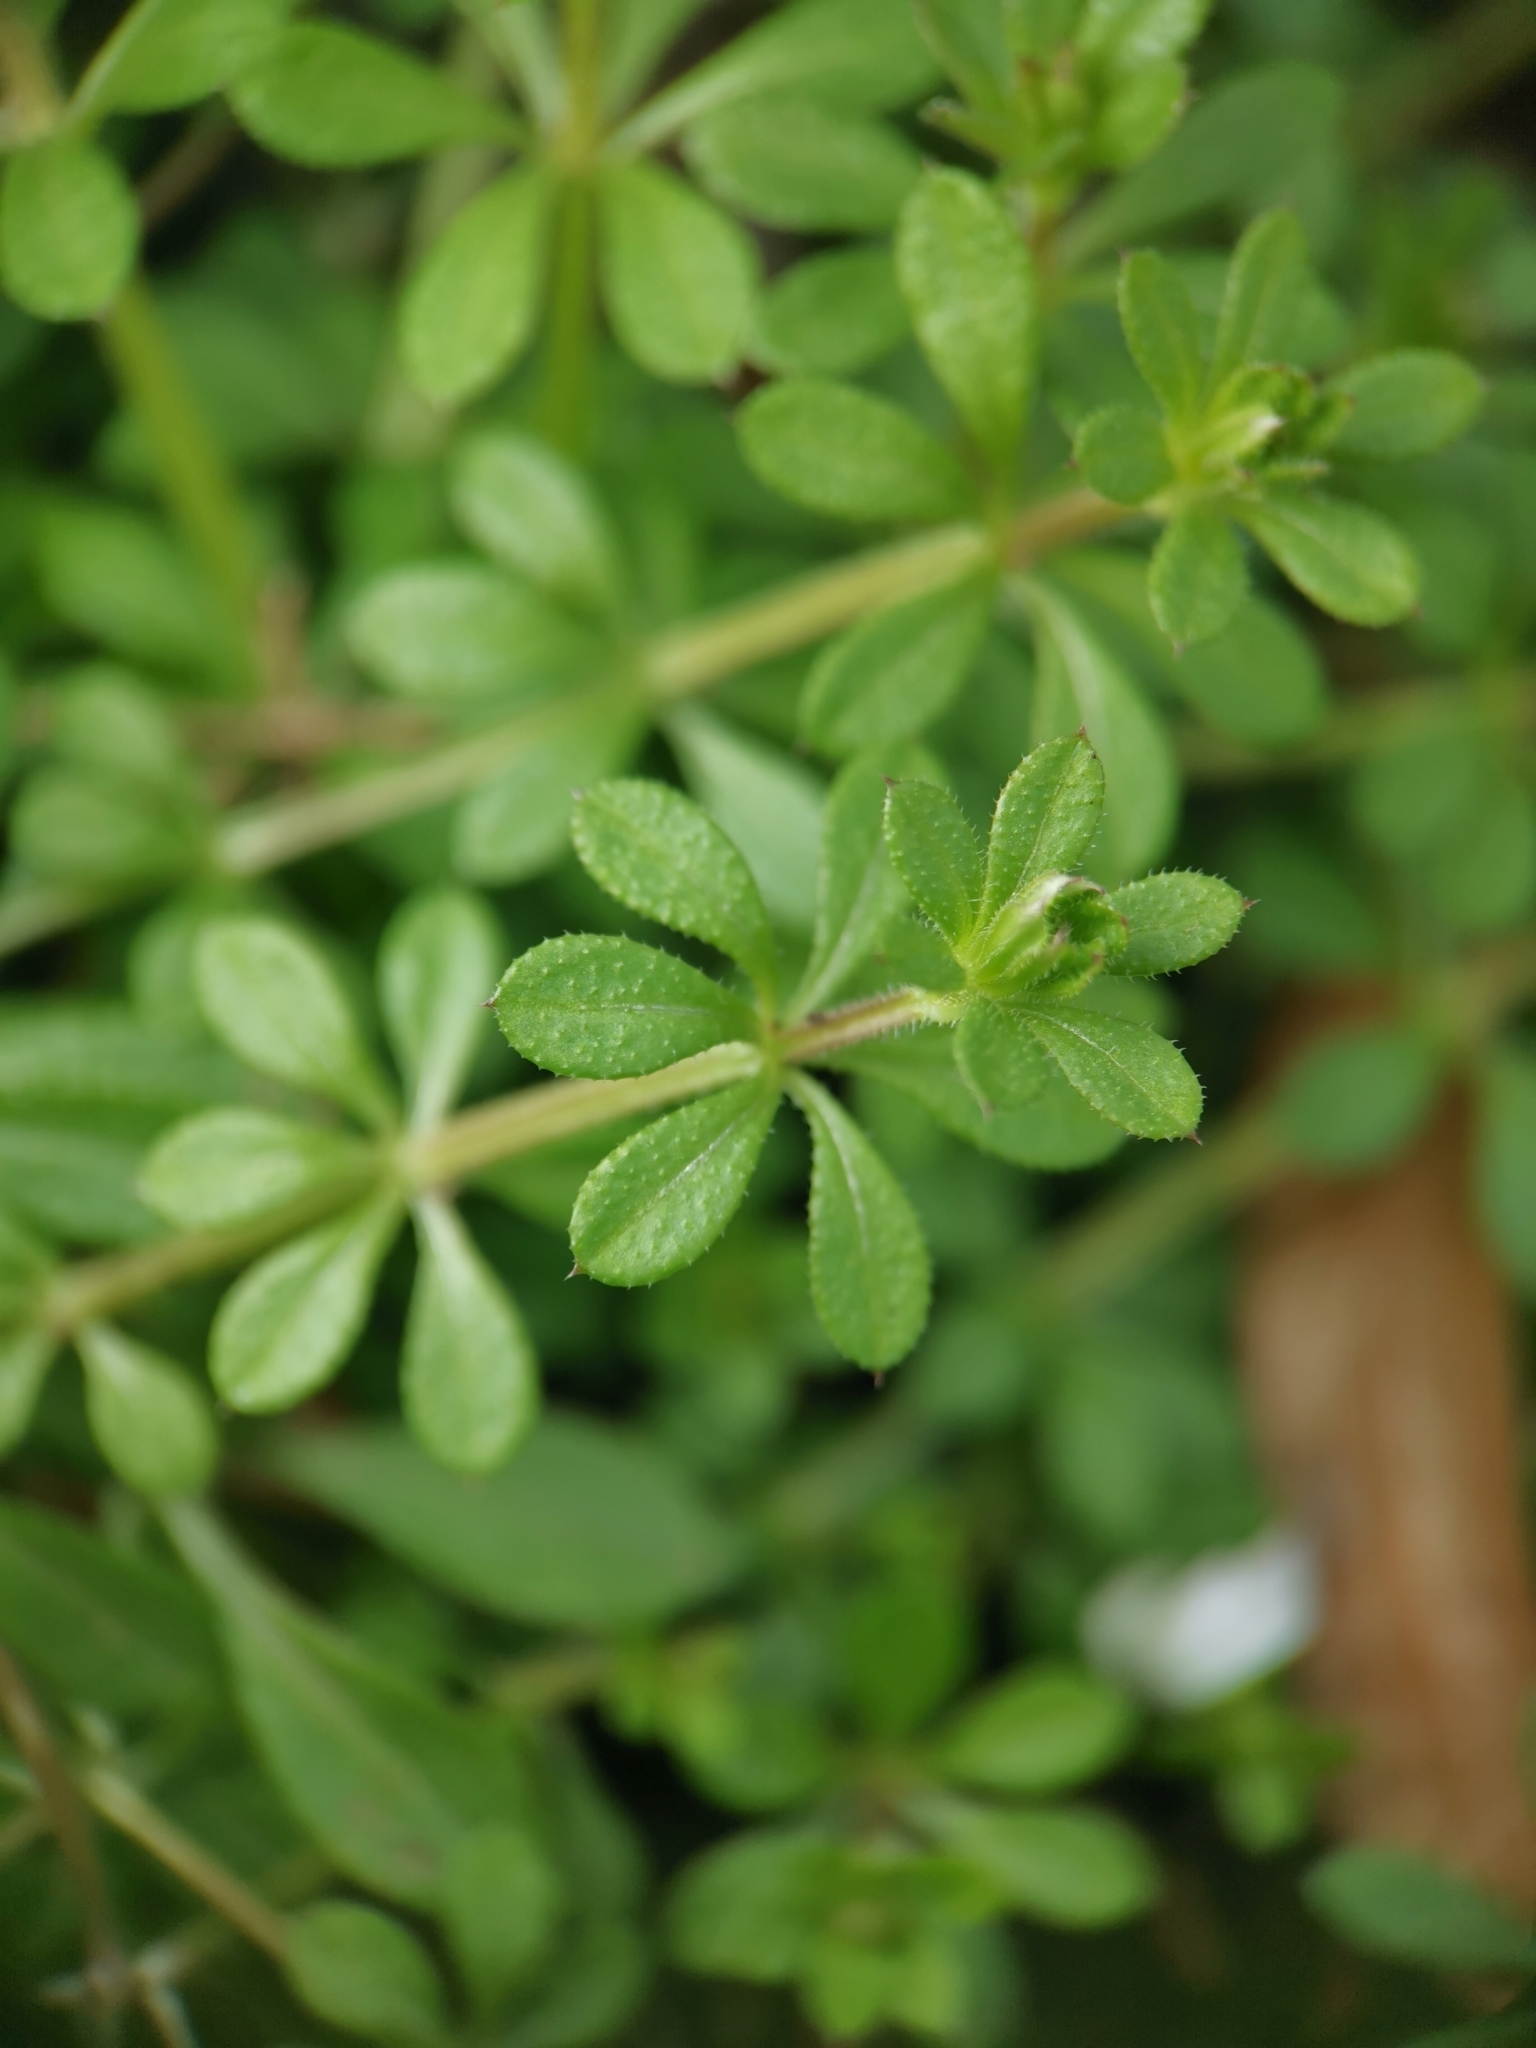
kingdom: Plantae
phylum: Tracheophyta
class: Magnoliopsida
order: Gentianales
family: Rubiaceae
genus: Galium
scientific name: Galium aparine
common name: Cleavers
